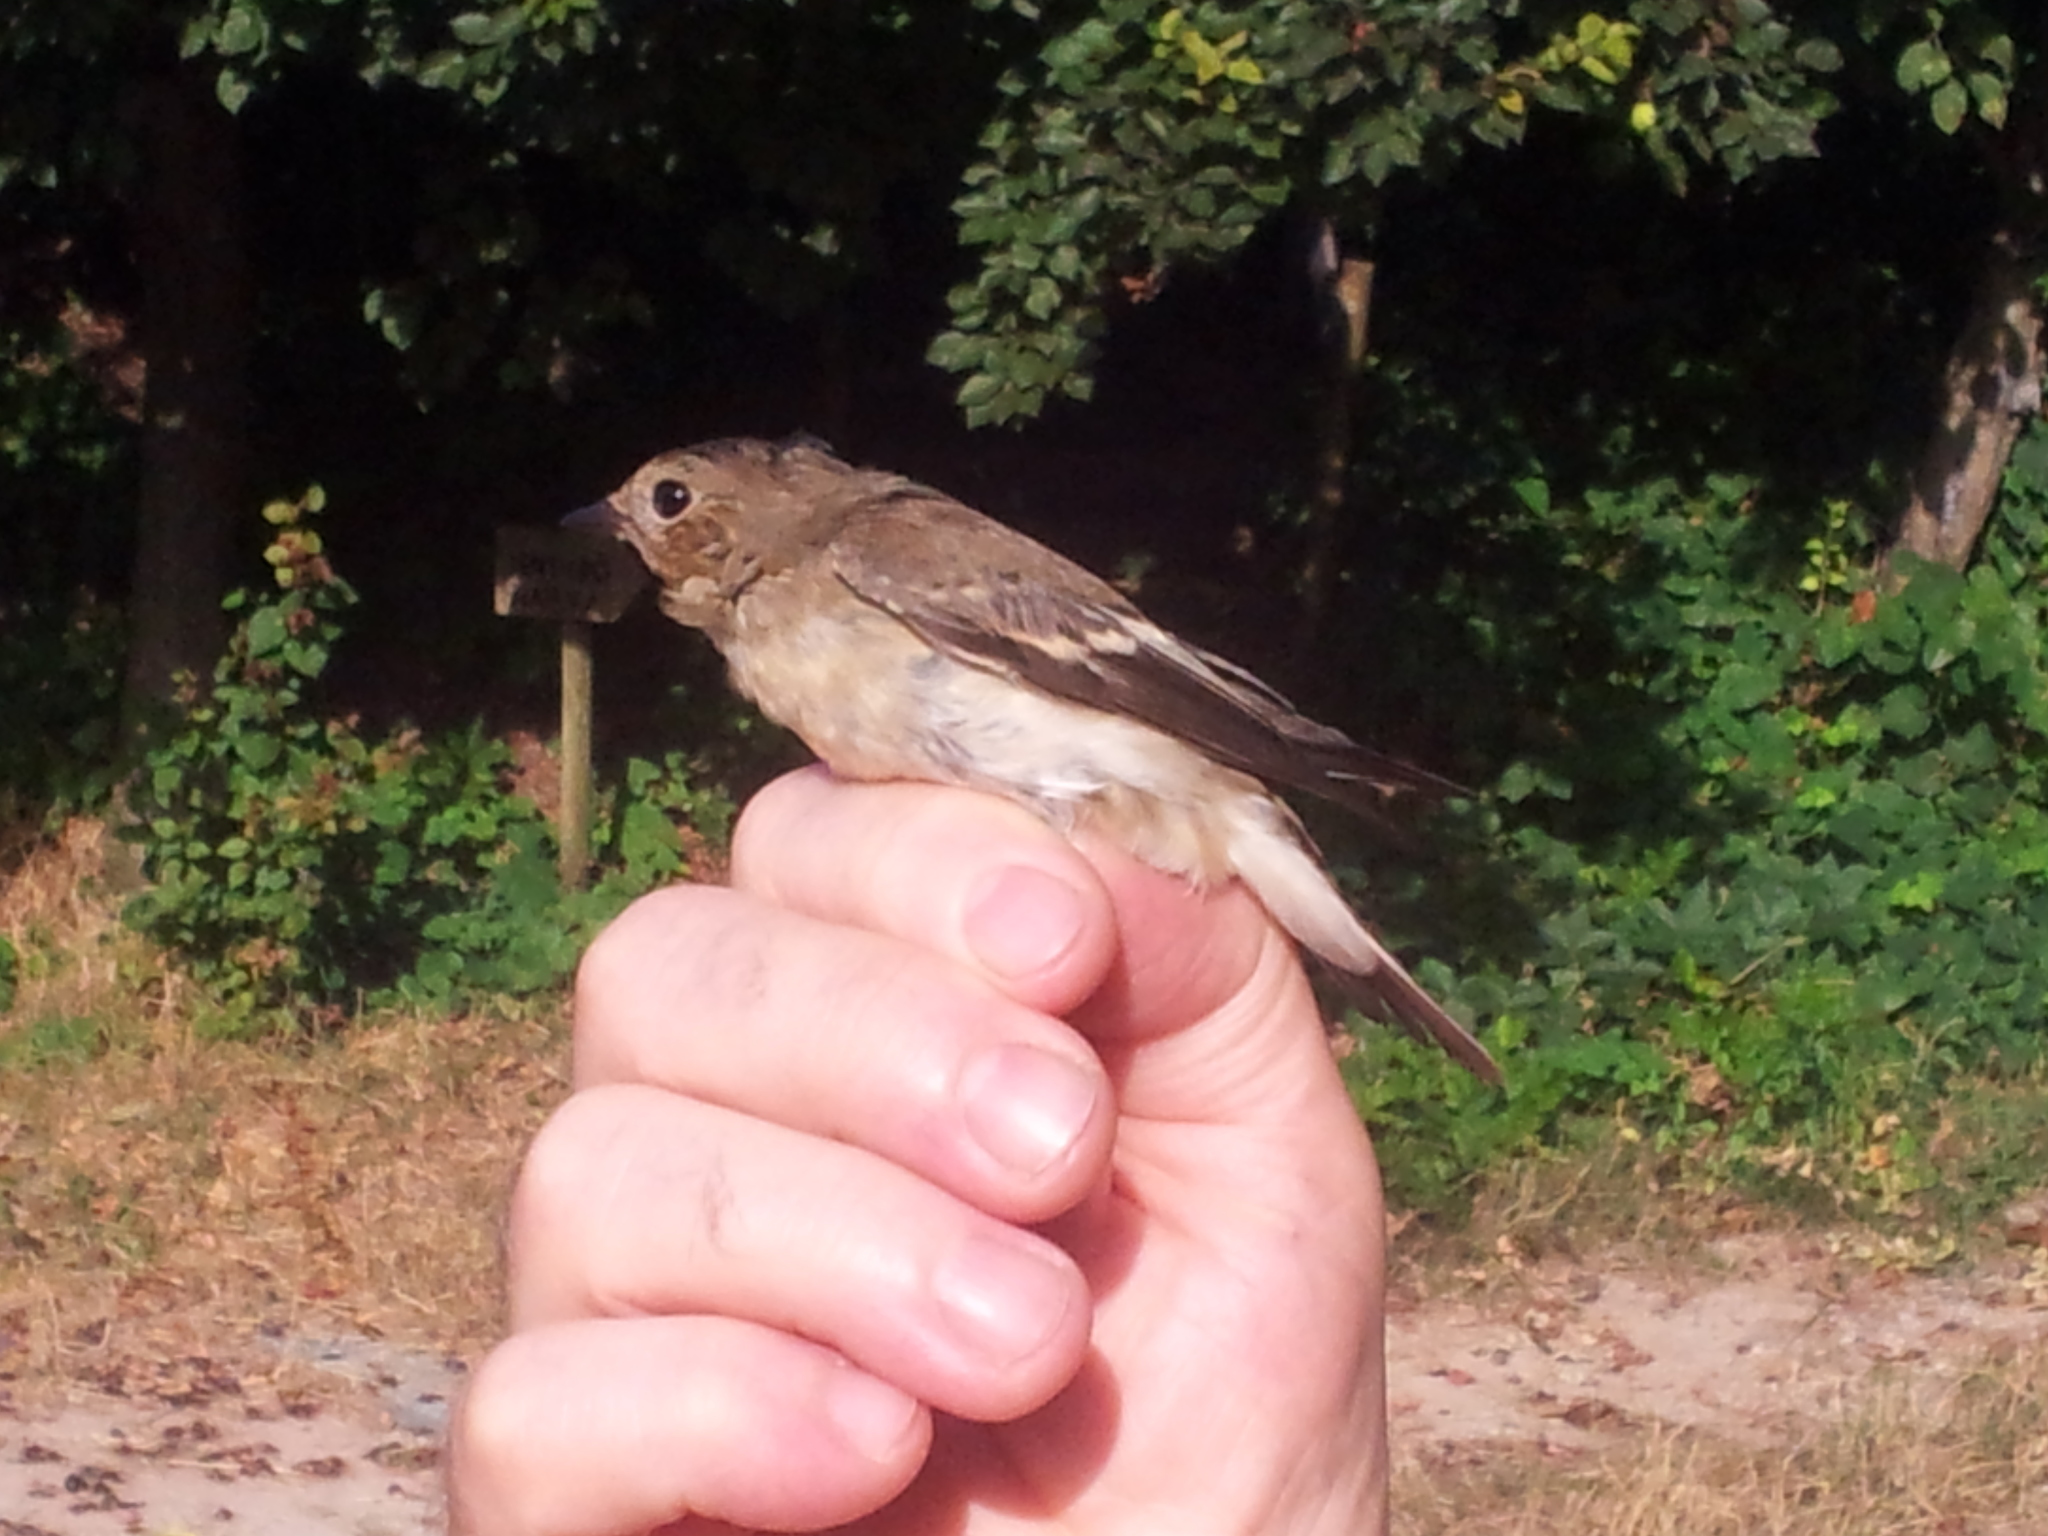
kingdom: Animalia
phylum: Chordata
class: Aves
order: Passeriformes
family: Muscicapidae
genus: Ficedula
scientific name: Ficedula hypoleuca
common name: European pied flycatcher
